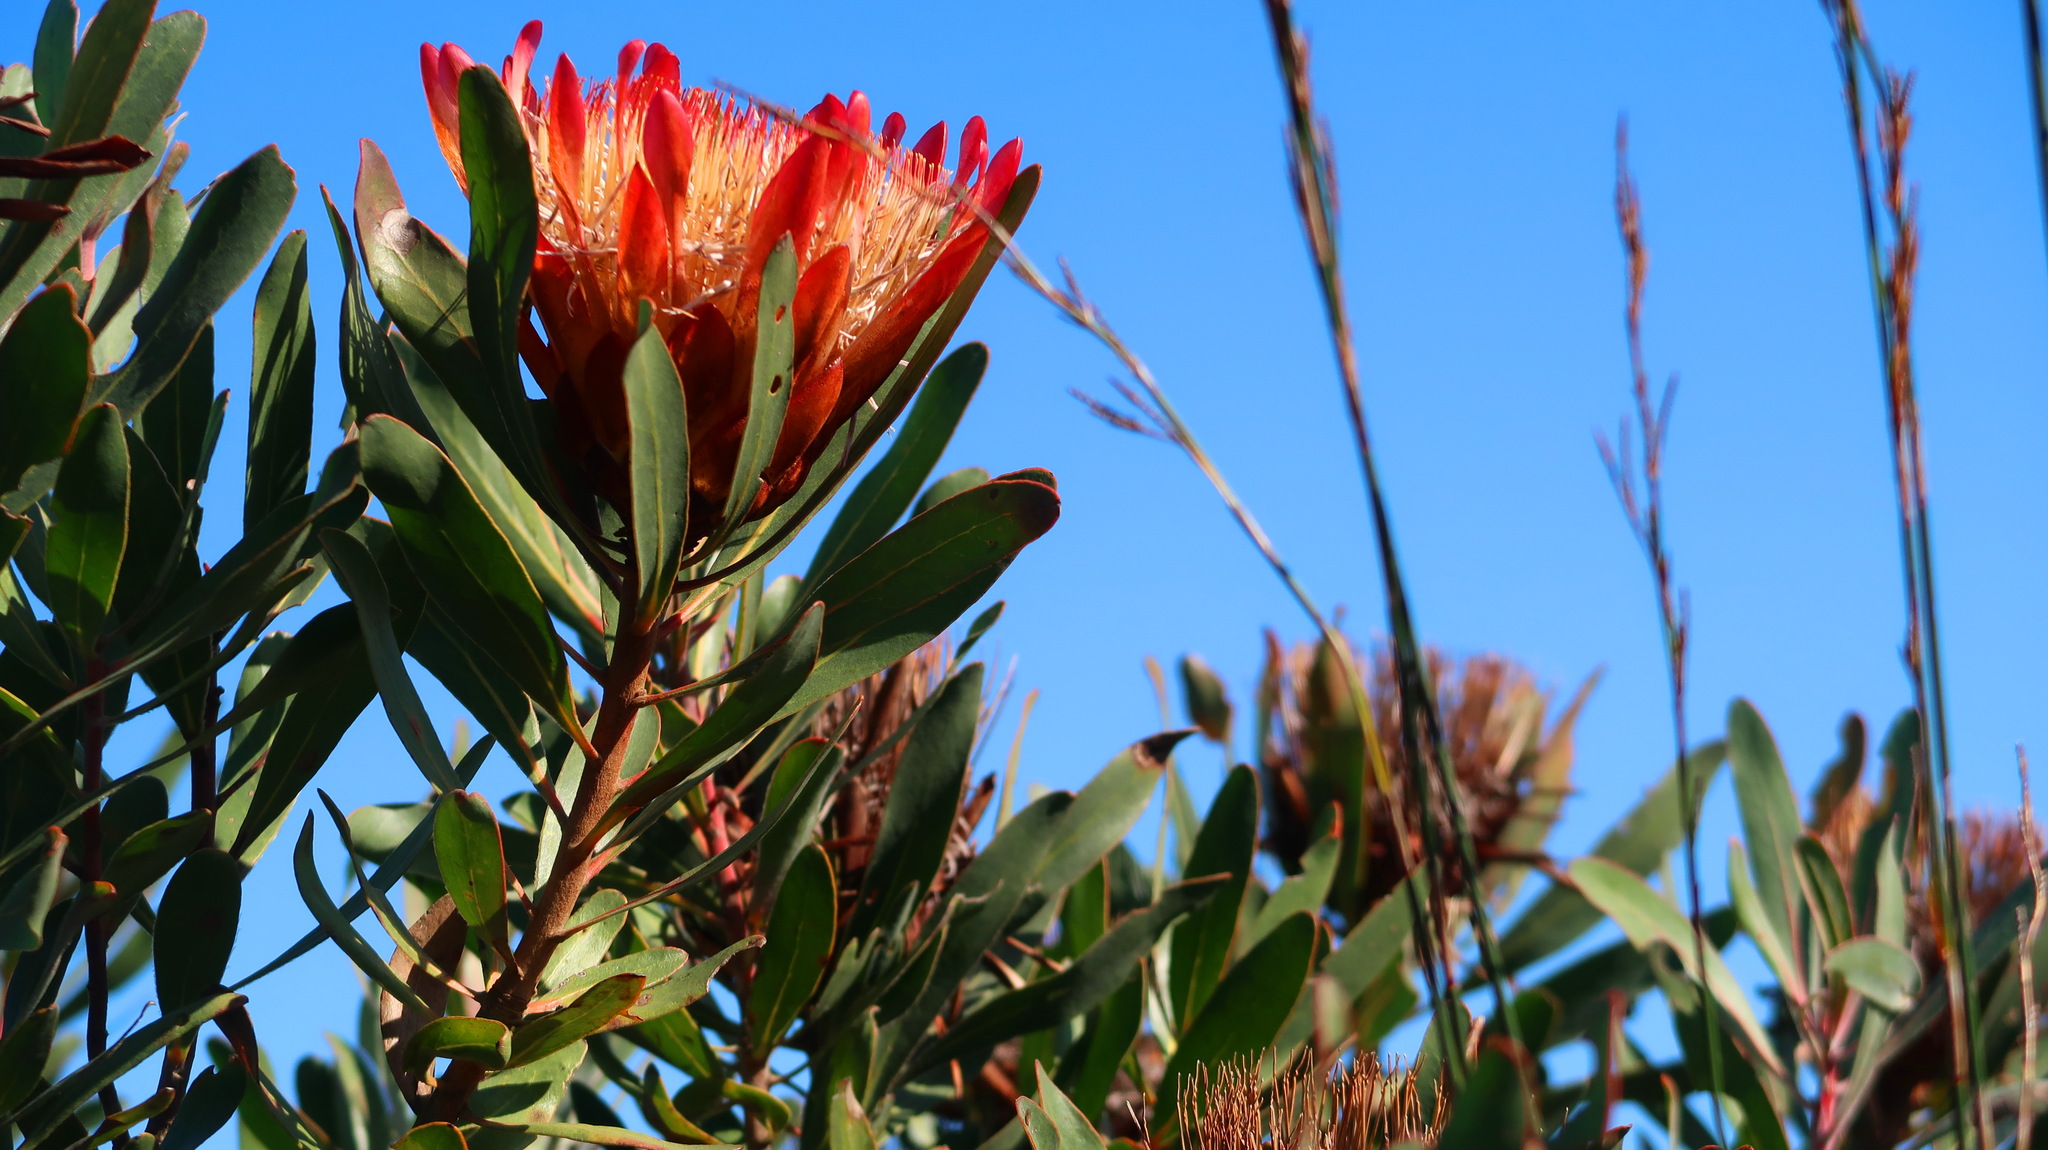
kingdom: Plantae
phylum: Tracheophyta
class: Magnoliopsida
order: Proteales
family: Proteaceae
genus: Protea
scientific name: Protea susannae
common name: Foetid-leaf sugarbush
